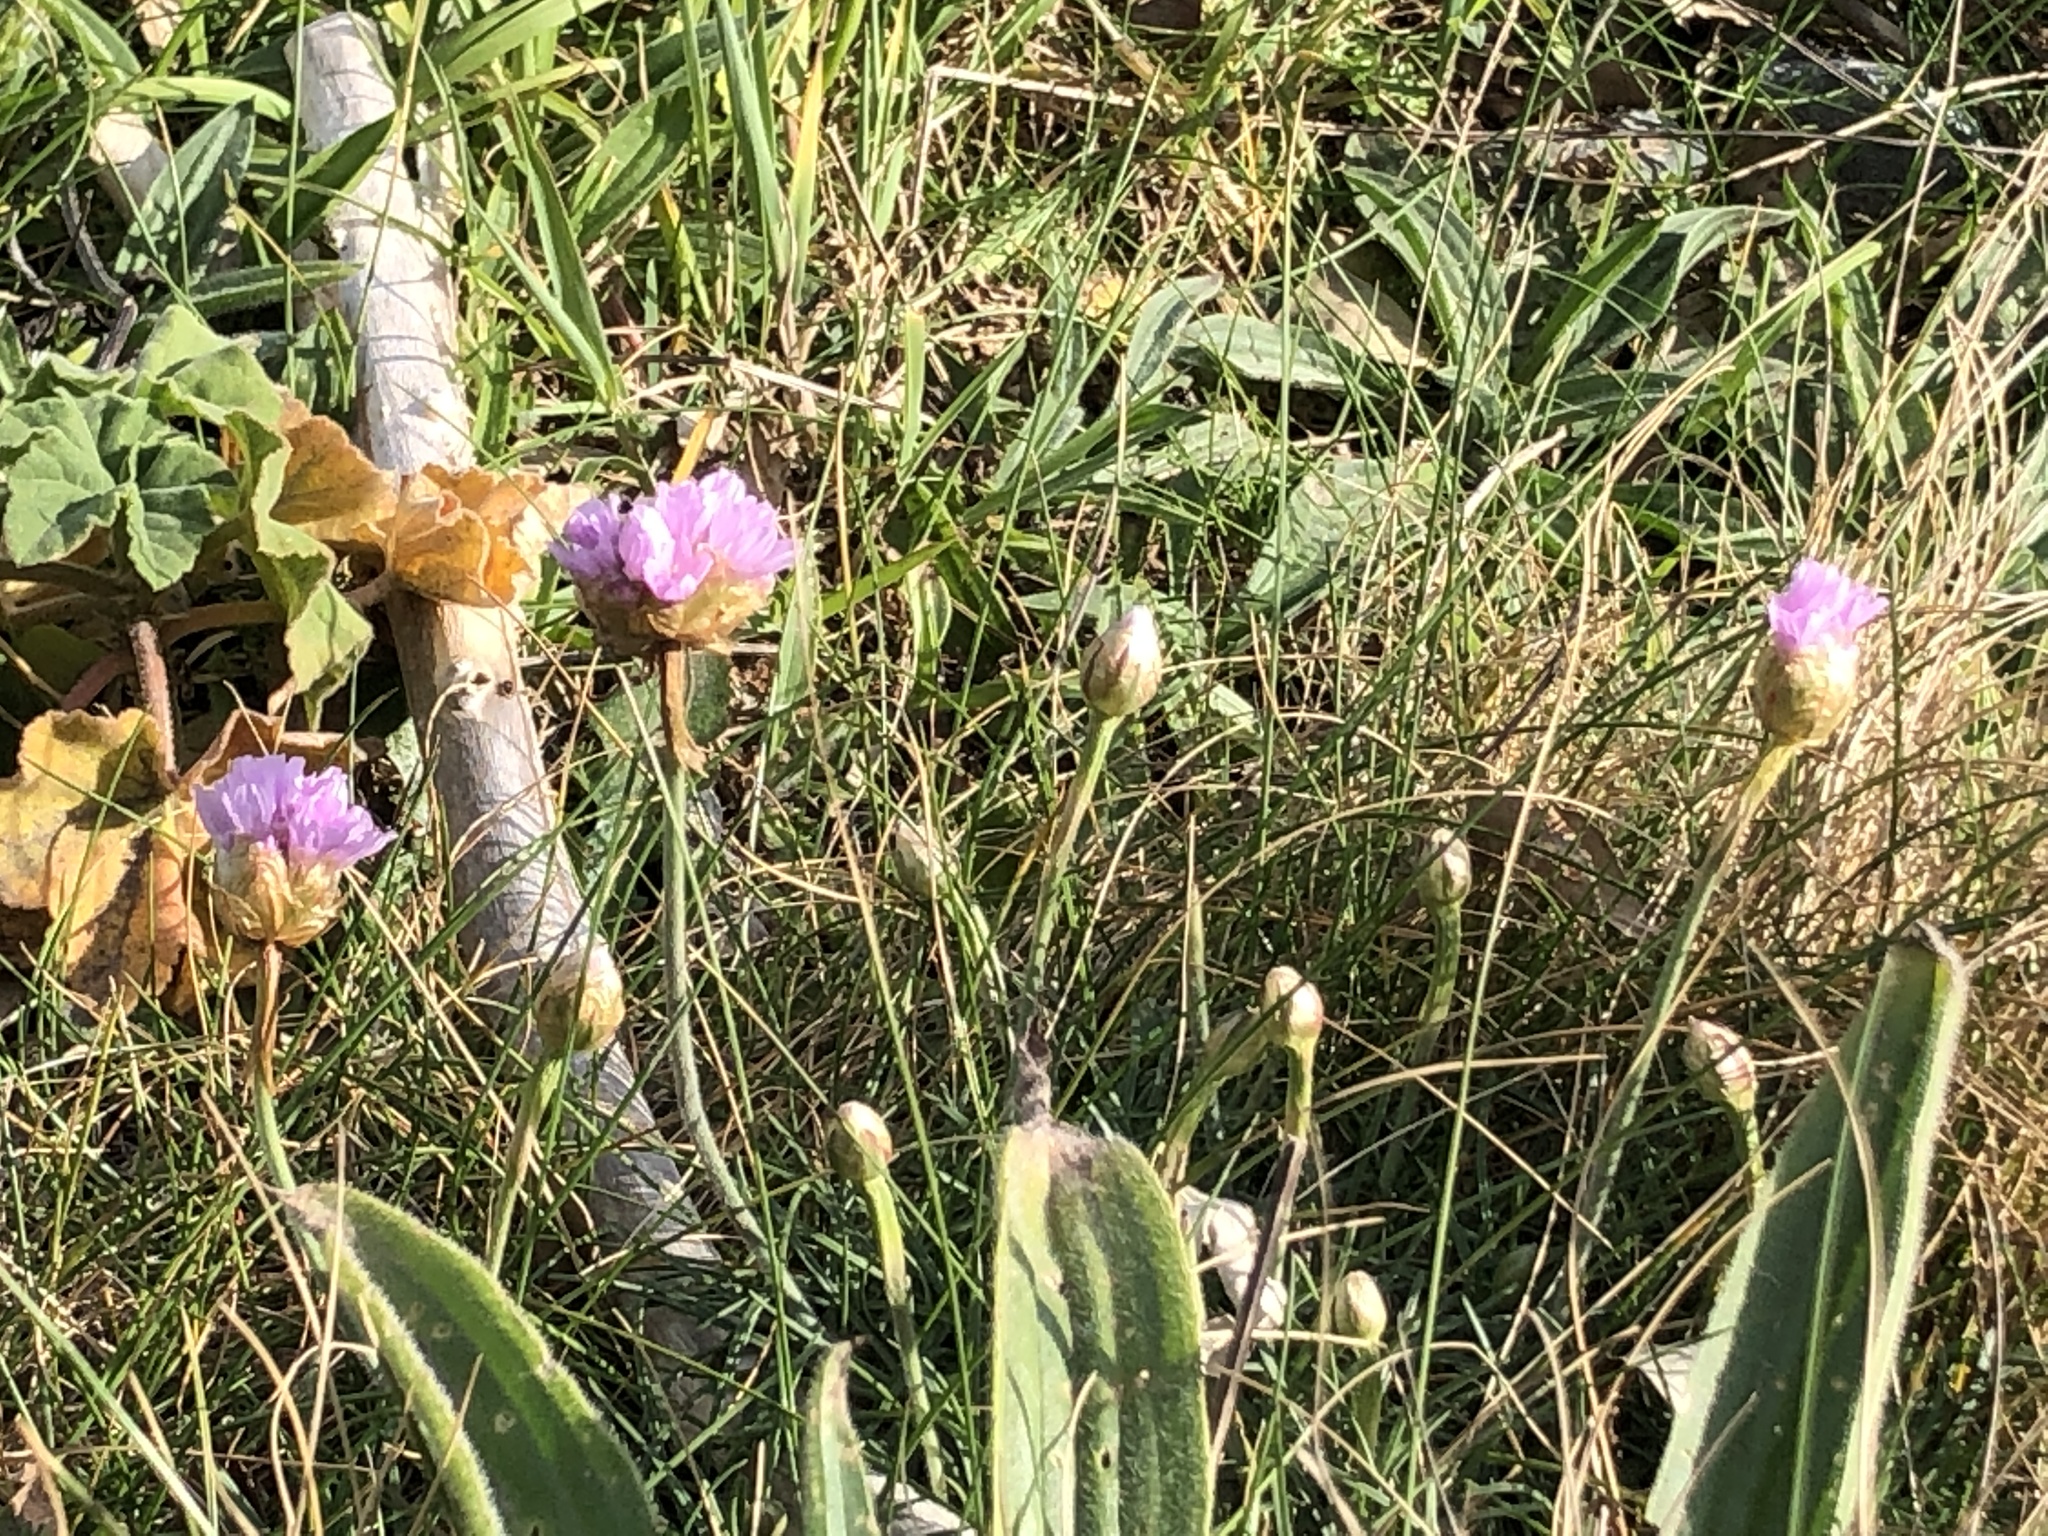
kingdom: Plantae
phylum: Tracheophyta
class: Magnoliopsida
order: Caryophyllales
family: Plumbaginaceae
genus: Armeria
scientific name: Armeria maritima
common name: Thrift
